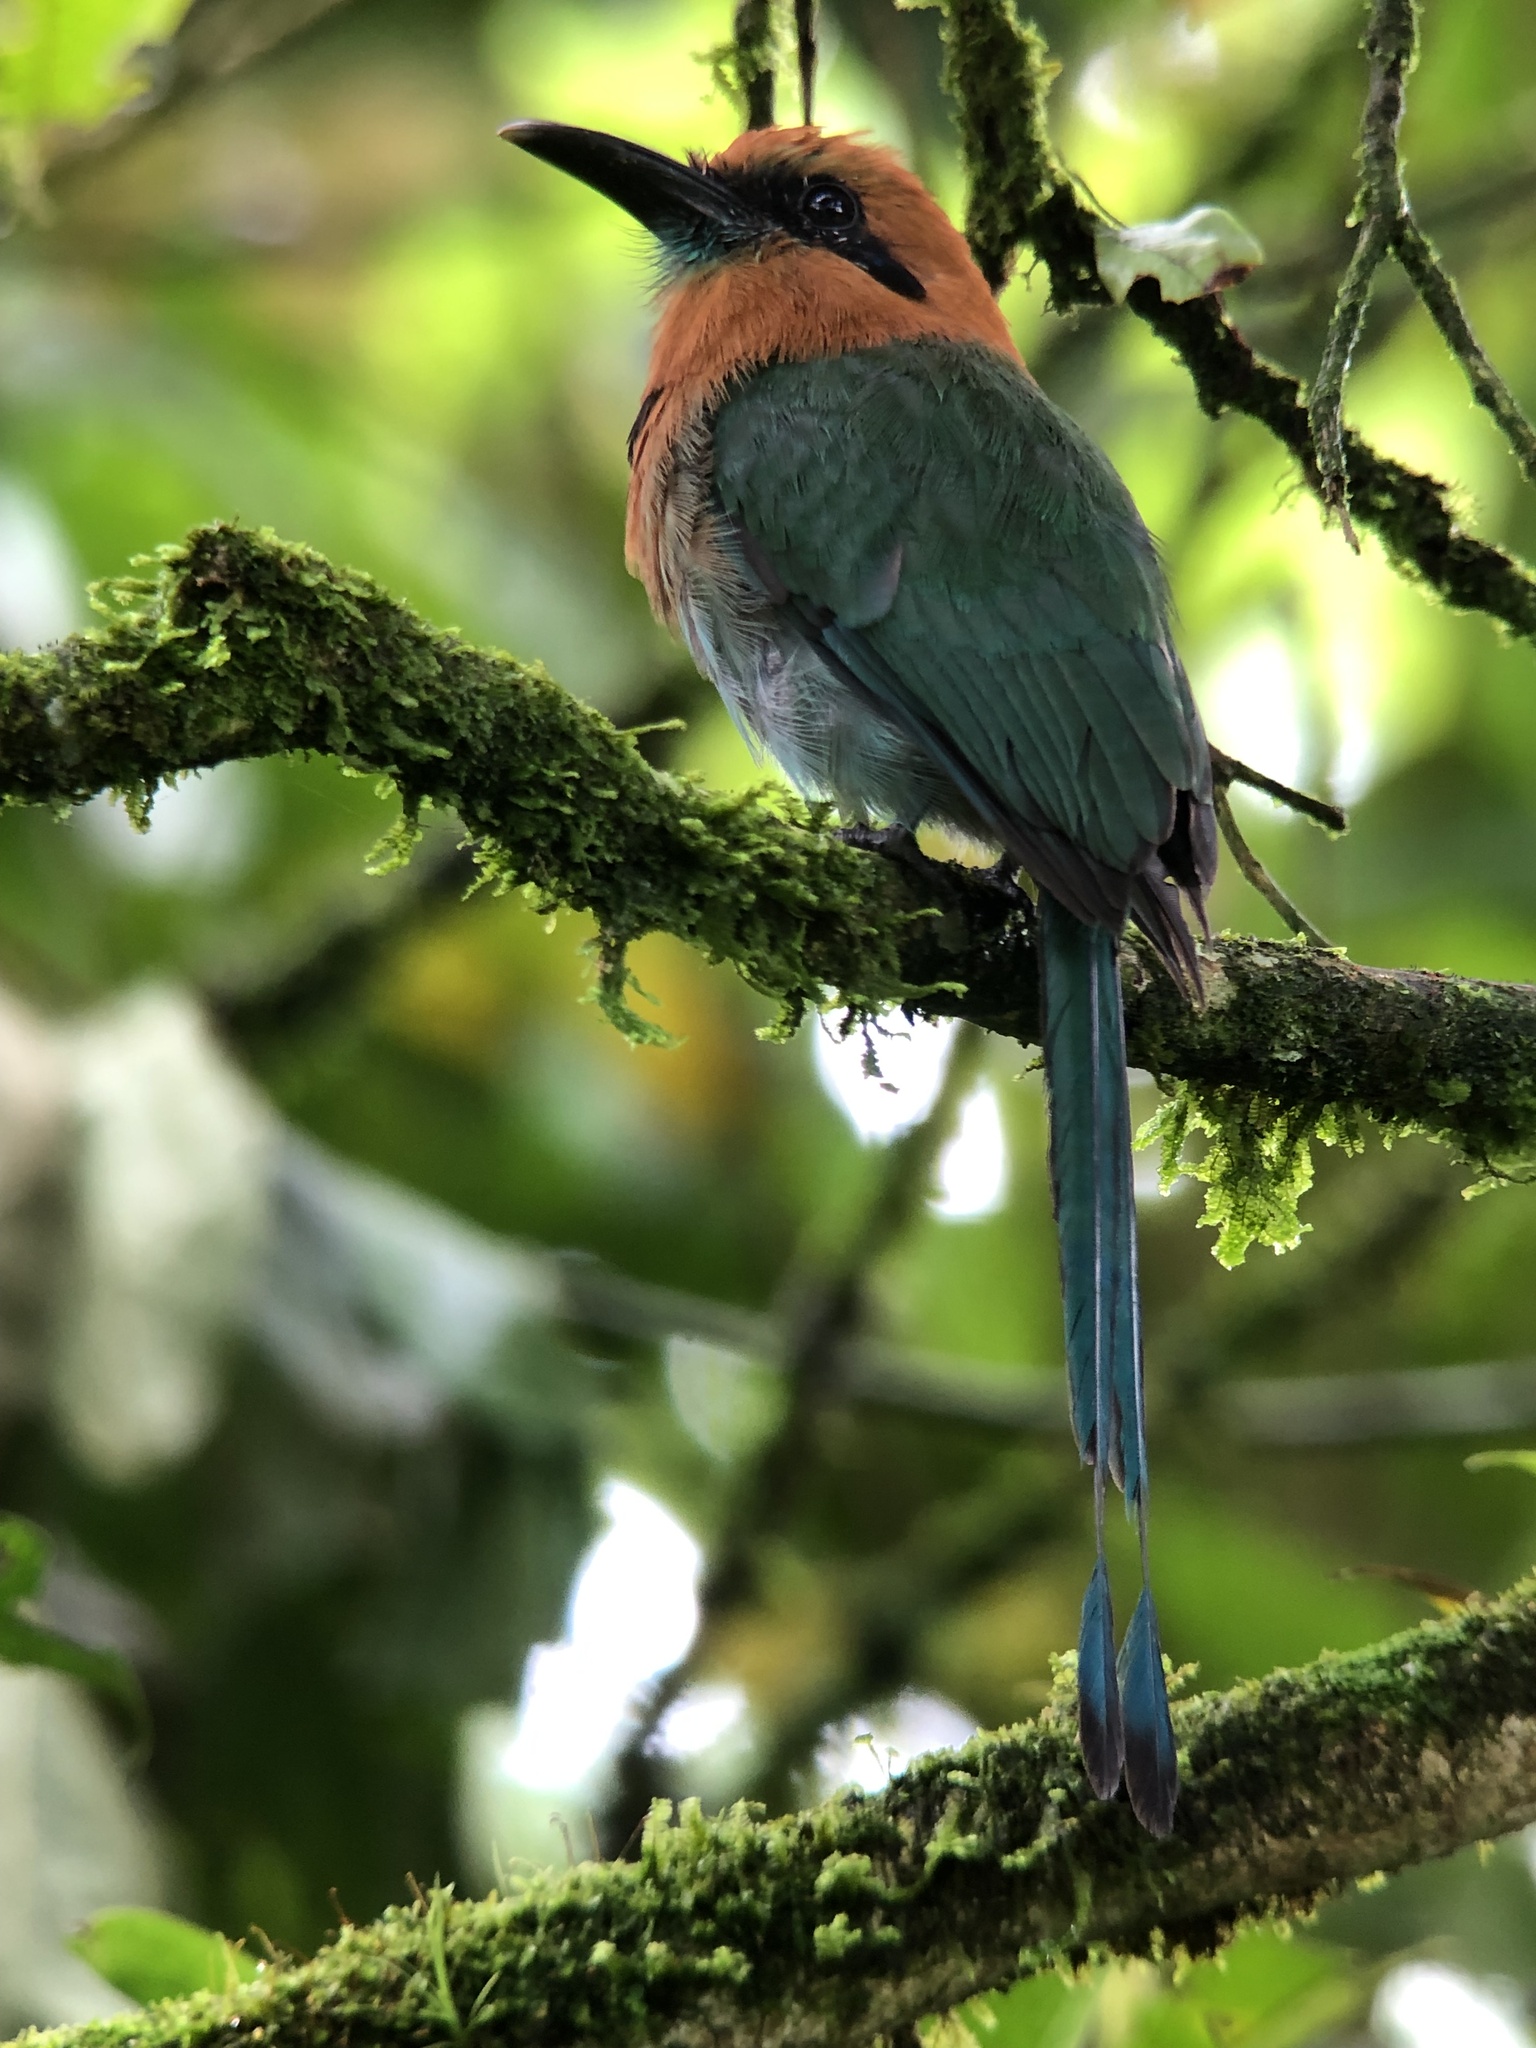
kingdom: Animalia
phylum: Chordata
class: Aves
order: Coraciiformes
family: Momotidae
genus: Electron
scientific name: Electron platyrhynchum
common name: Broad-billed motmot
